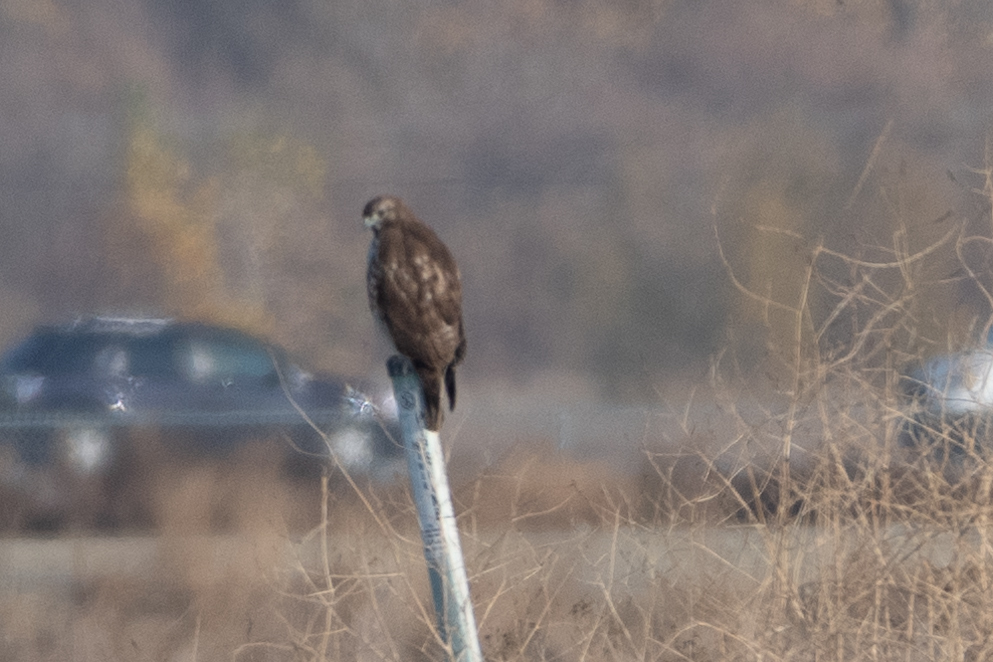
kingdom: Animalia
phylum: Chordata
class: Aves
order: Accipitriformes
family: Accipitridae
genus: Buteo
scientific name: Buteo jamaicensis
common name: Red-tailed hawk
